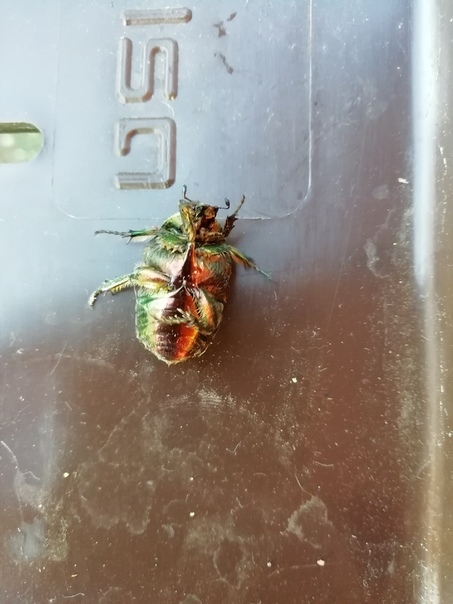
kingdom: Animalia
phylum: Arthropoda
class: Insecta
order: Coleoptera
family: Scarabaeidae
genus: Cetonia
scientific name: Cetonia aurata
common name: Rose chafer
